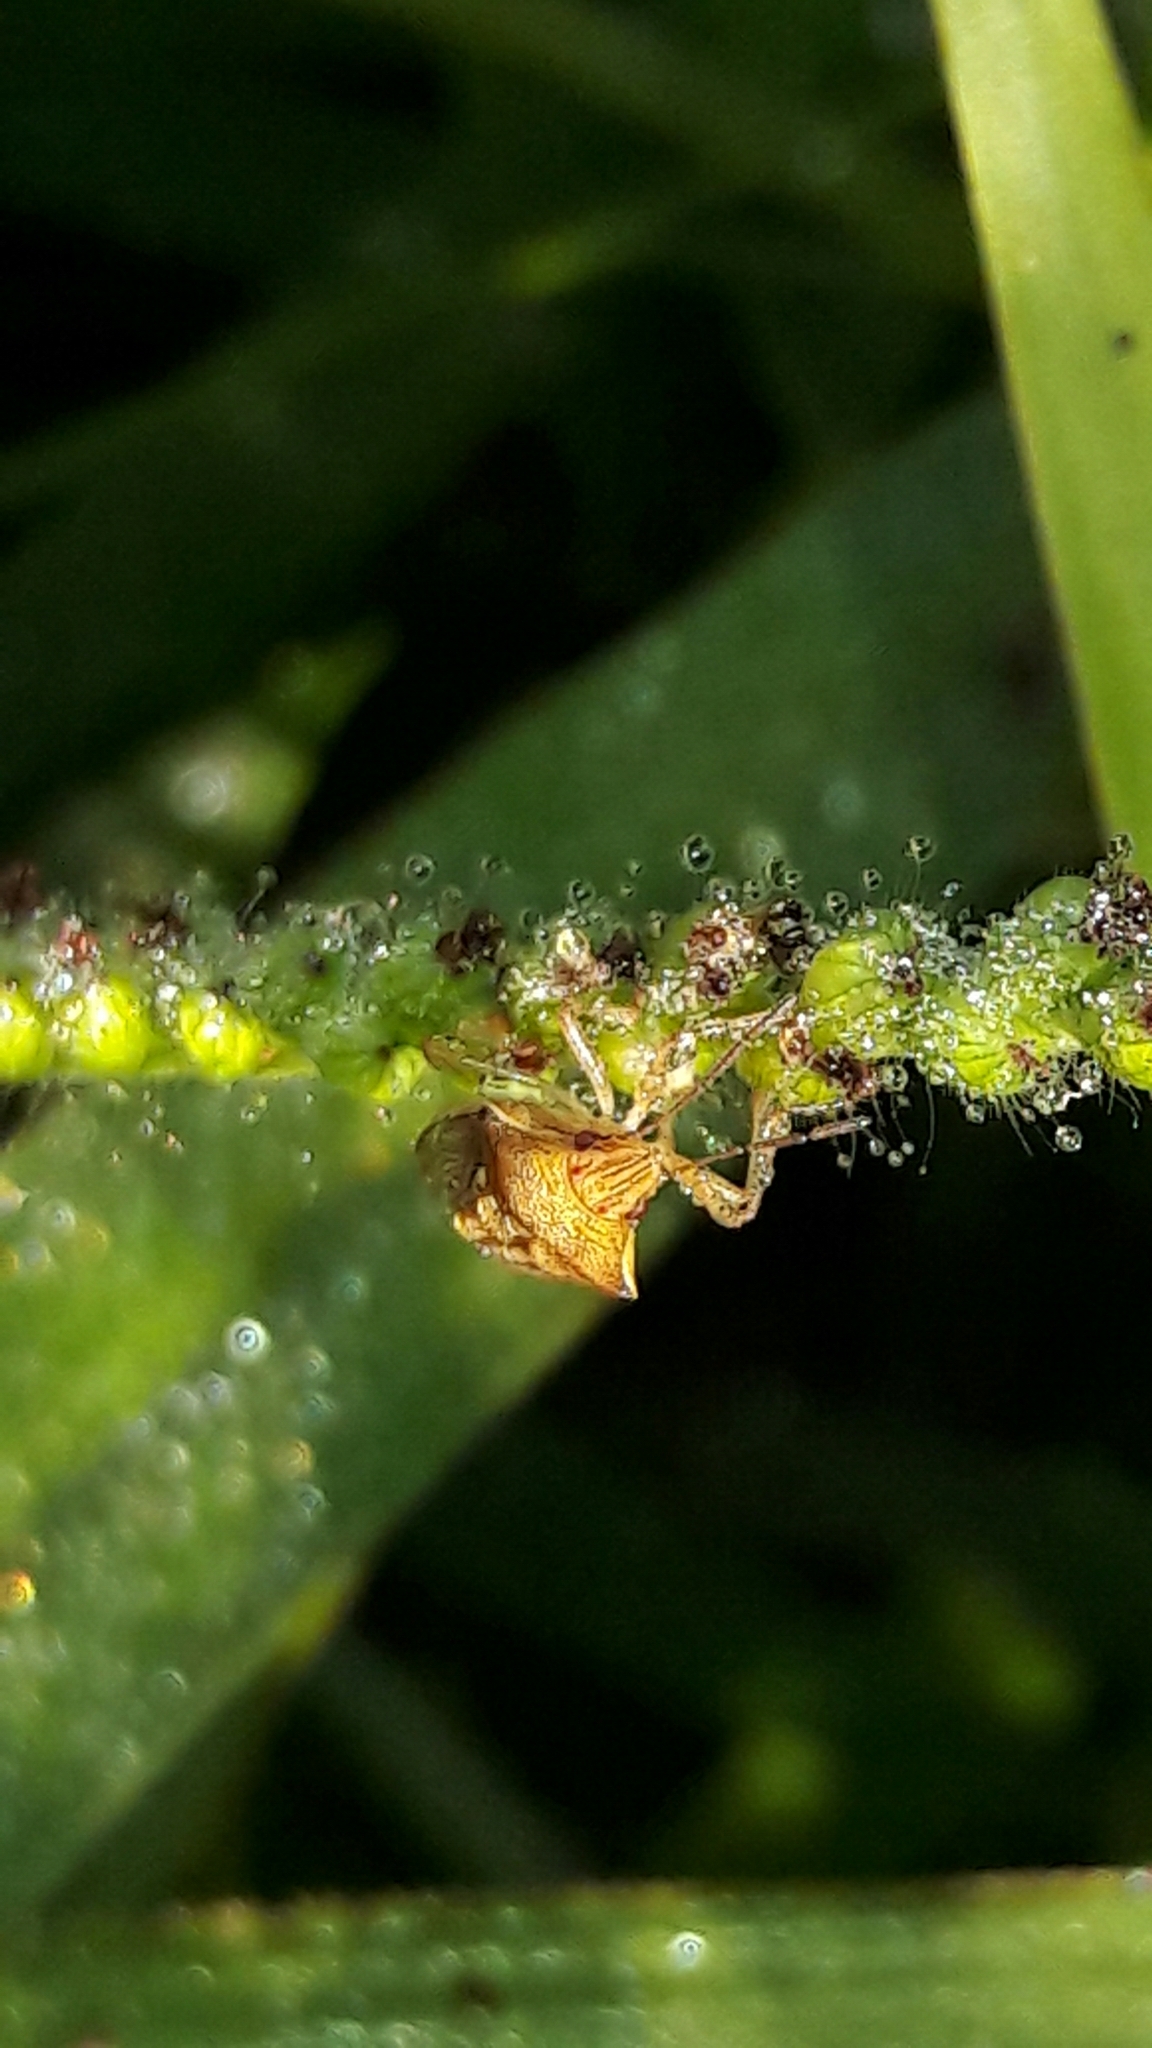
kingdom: Animalia
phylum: Arthropoda
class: Insecta
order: Hemiptera
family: Pentatomidae
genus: Oebalus
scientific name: Oebalus ypsilongriseus
